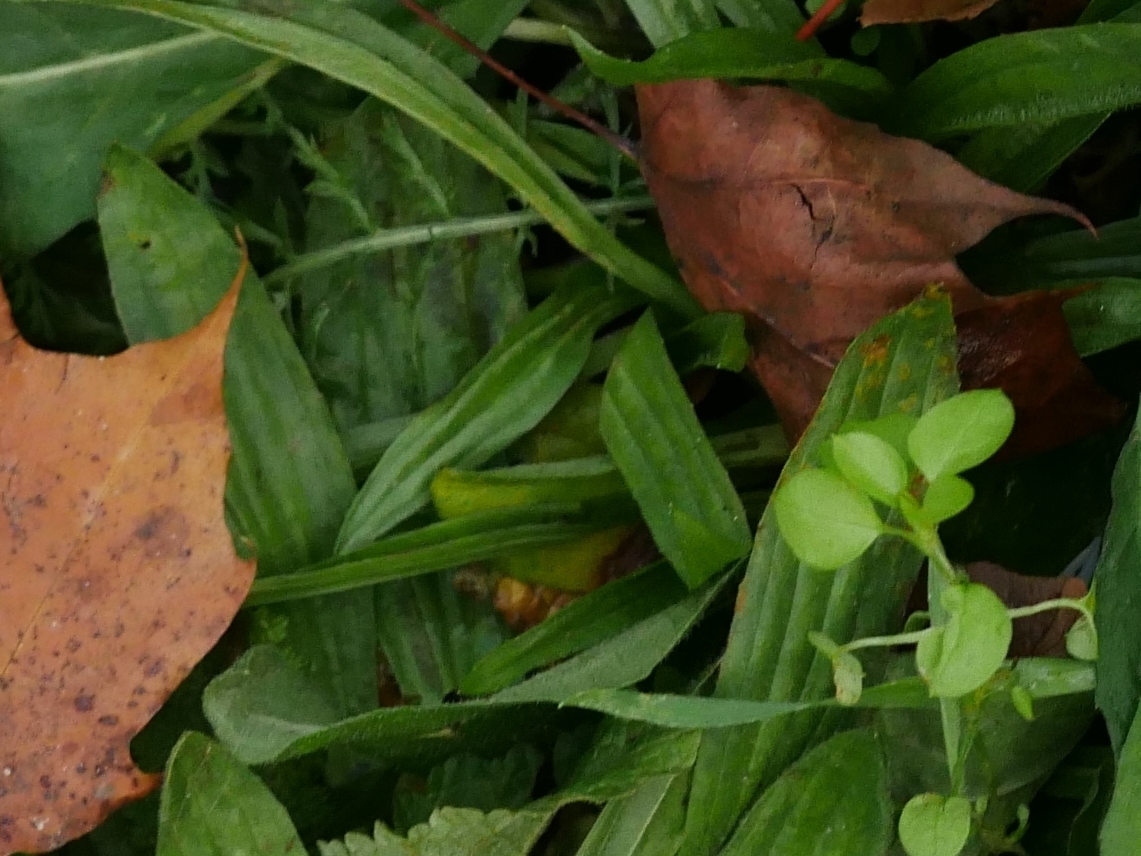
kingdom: Plantae
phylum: Tracheophyta
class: Magnoliopsida
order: Lamiales
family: Plantaginaceae
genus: Plantago
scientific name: Plantago lanceolata
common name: Ribwort plantain
